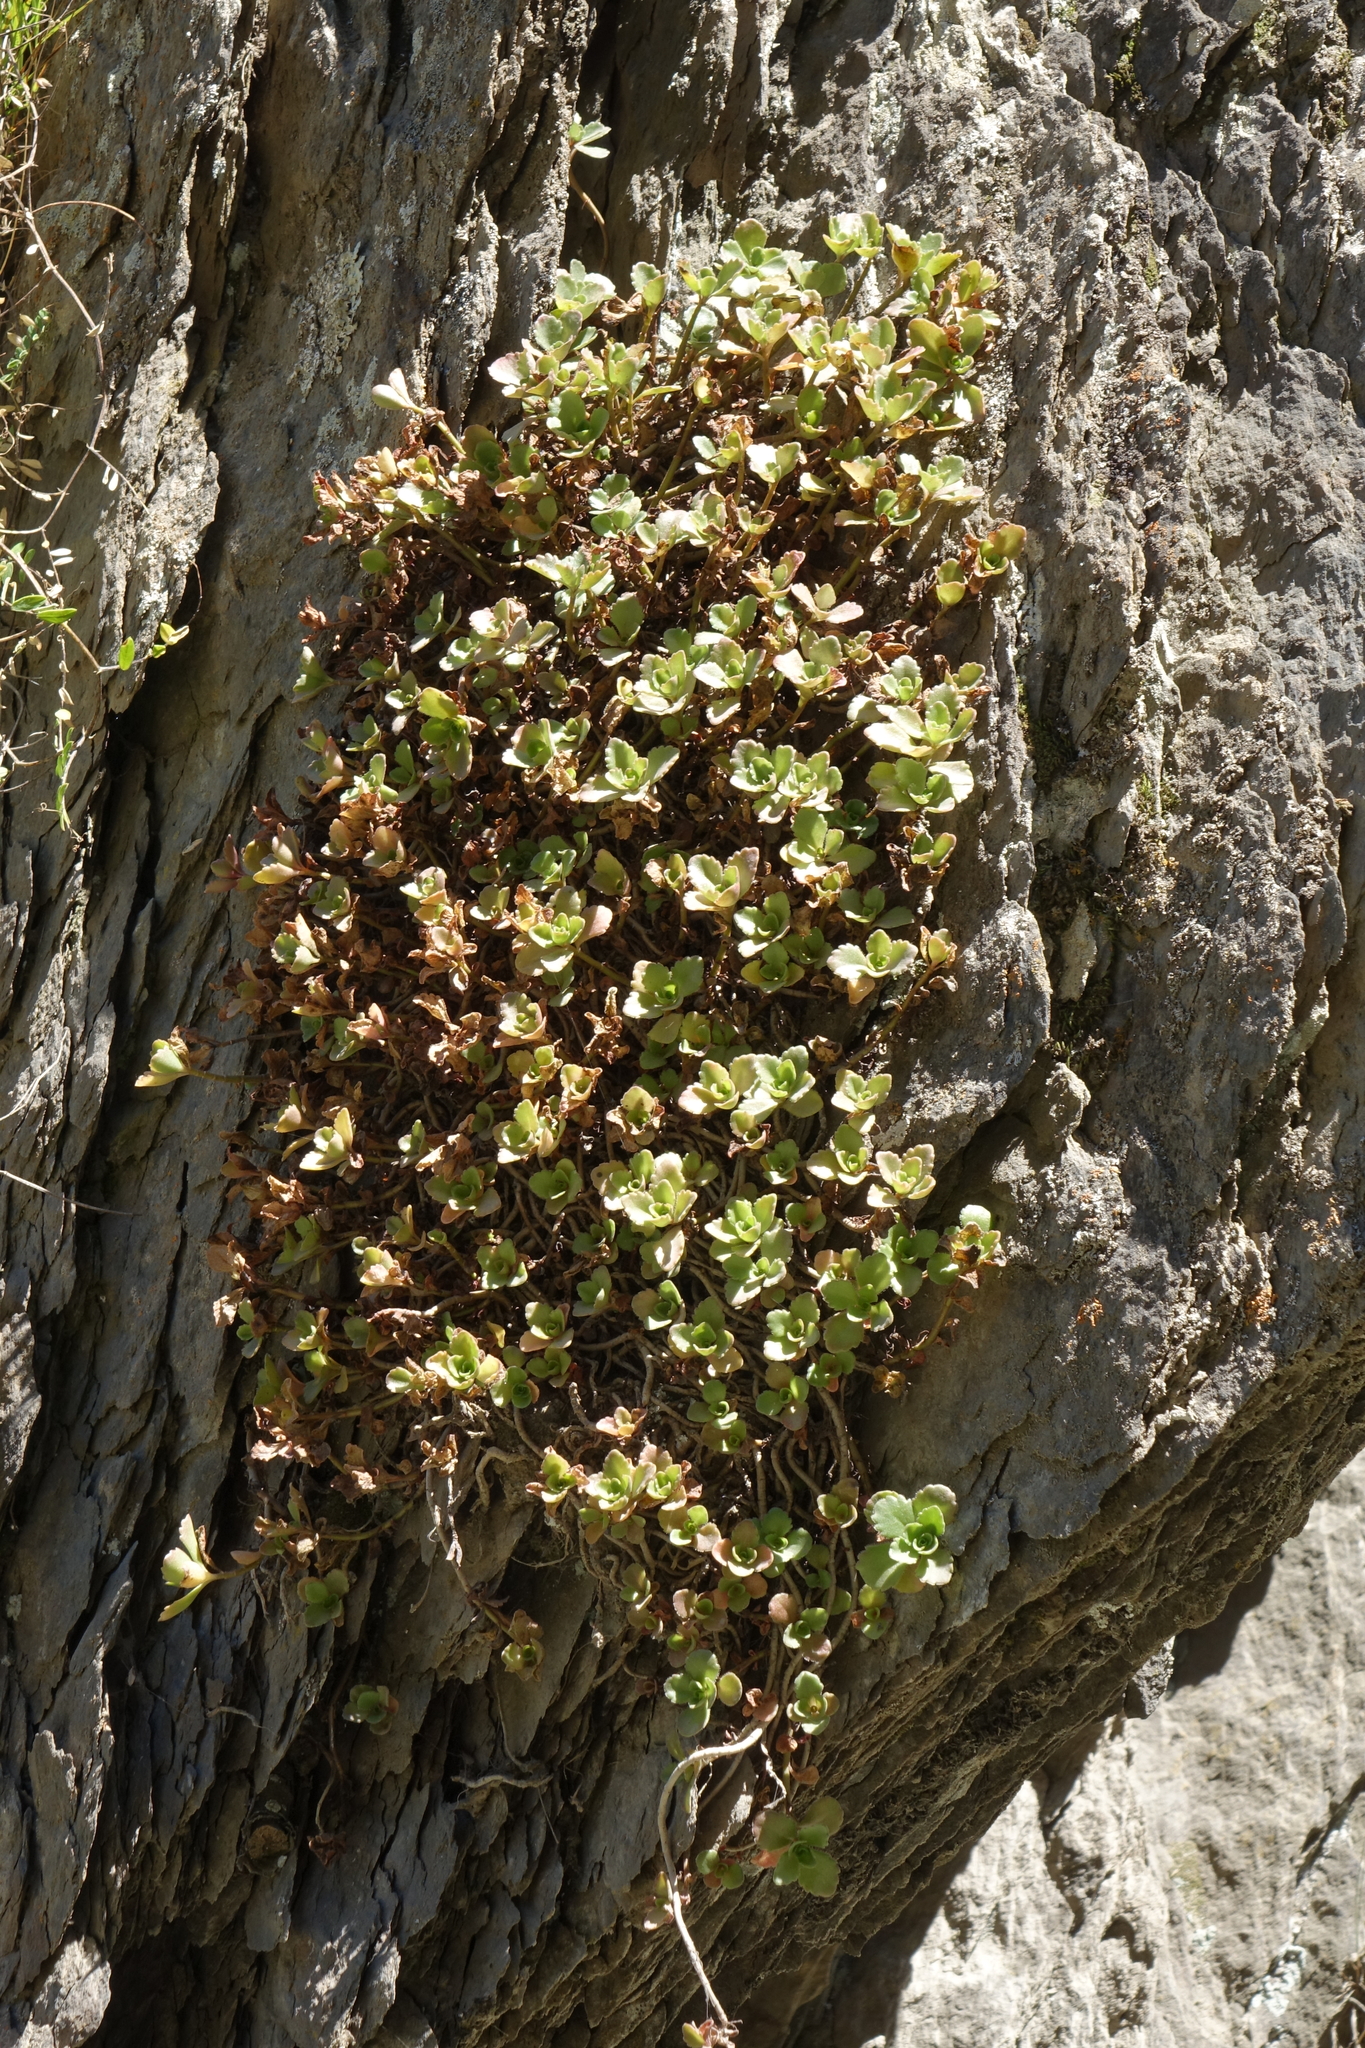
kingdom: Plantae
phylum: Tracheophyta
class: Magnoliopsida
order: Saxifragales
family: Crassulaceae
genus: Phedimus
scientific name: Phedimus spurius
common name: Caucasian stonecrop
